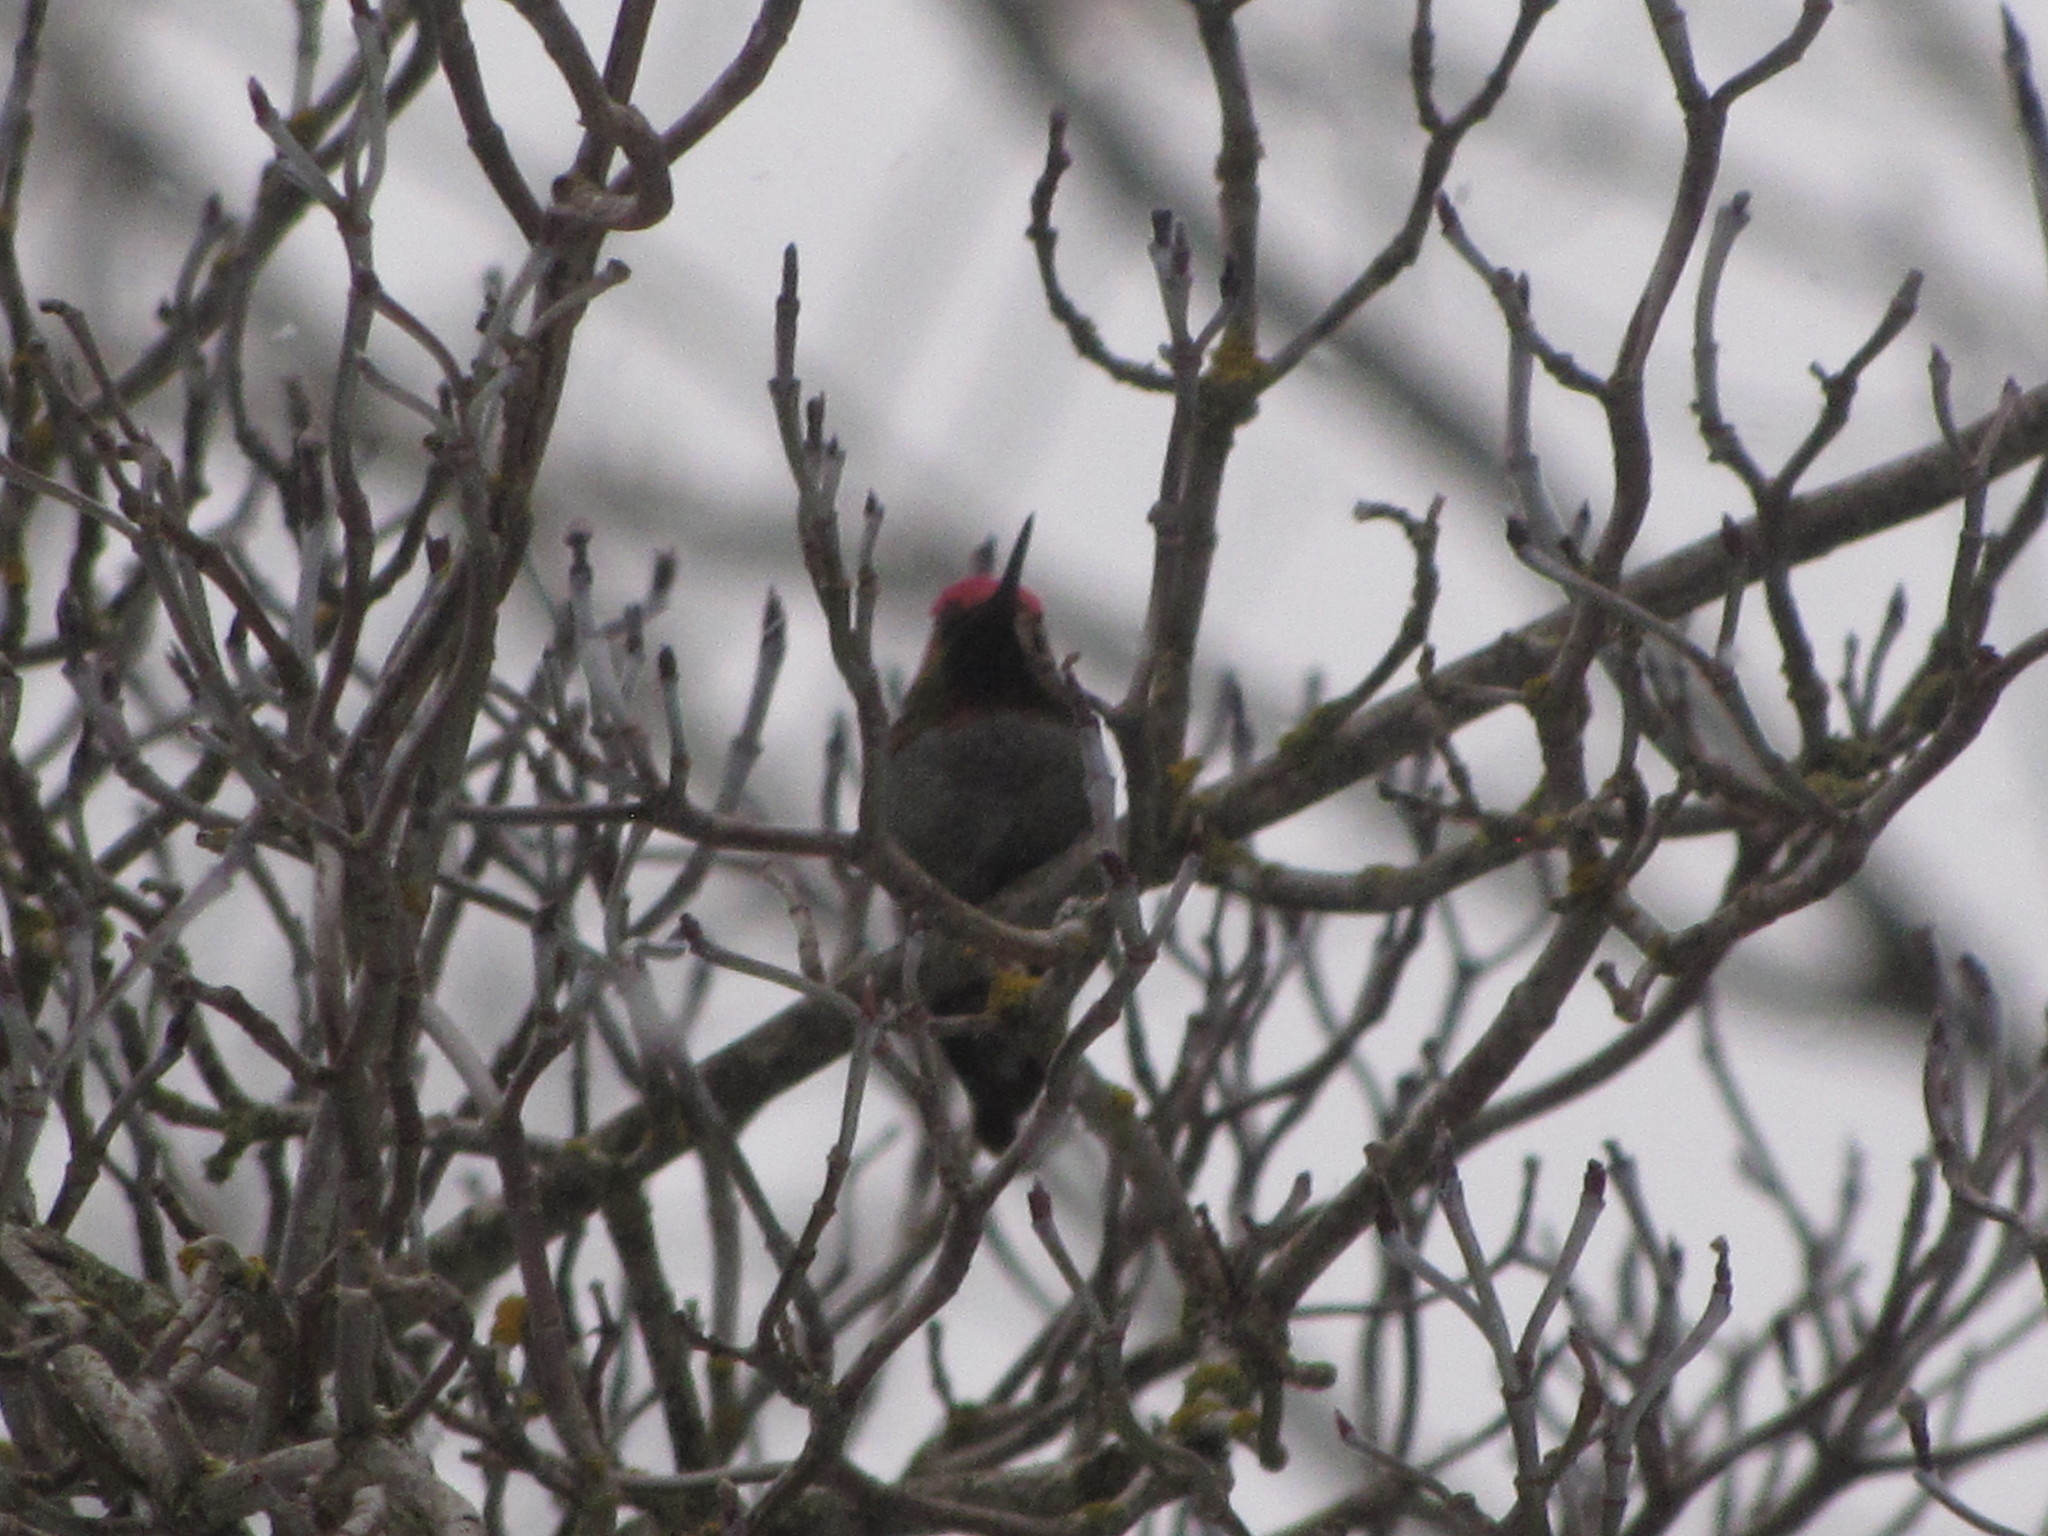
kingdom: Animalia
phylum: Chordata
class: Aves
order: Apodiformes
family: Trochilidae
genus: Calypte
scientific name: Calypte anna
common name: Anna's hummingbird
